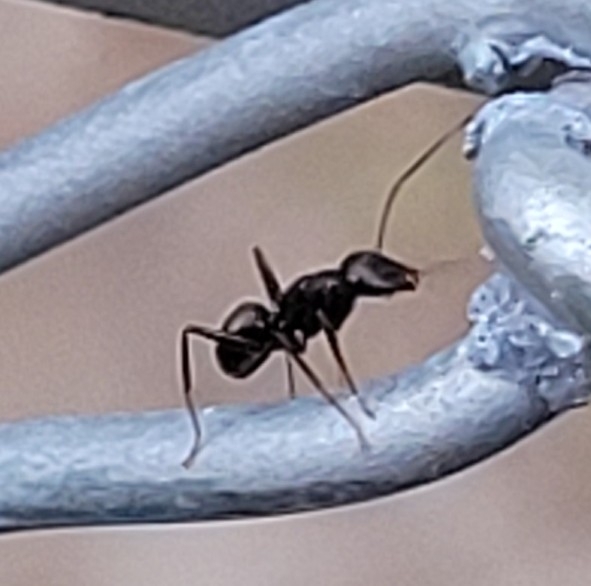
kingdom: Animalia
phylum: Arthropoda
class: Insecta
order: Hymenoptera
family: Formicidae
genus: Camponotus
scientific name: Camponotus pennsylvanicus
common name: Black carpenter ant
